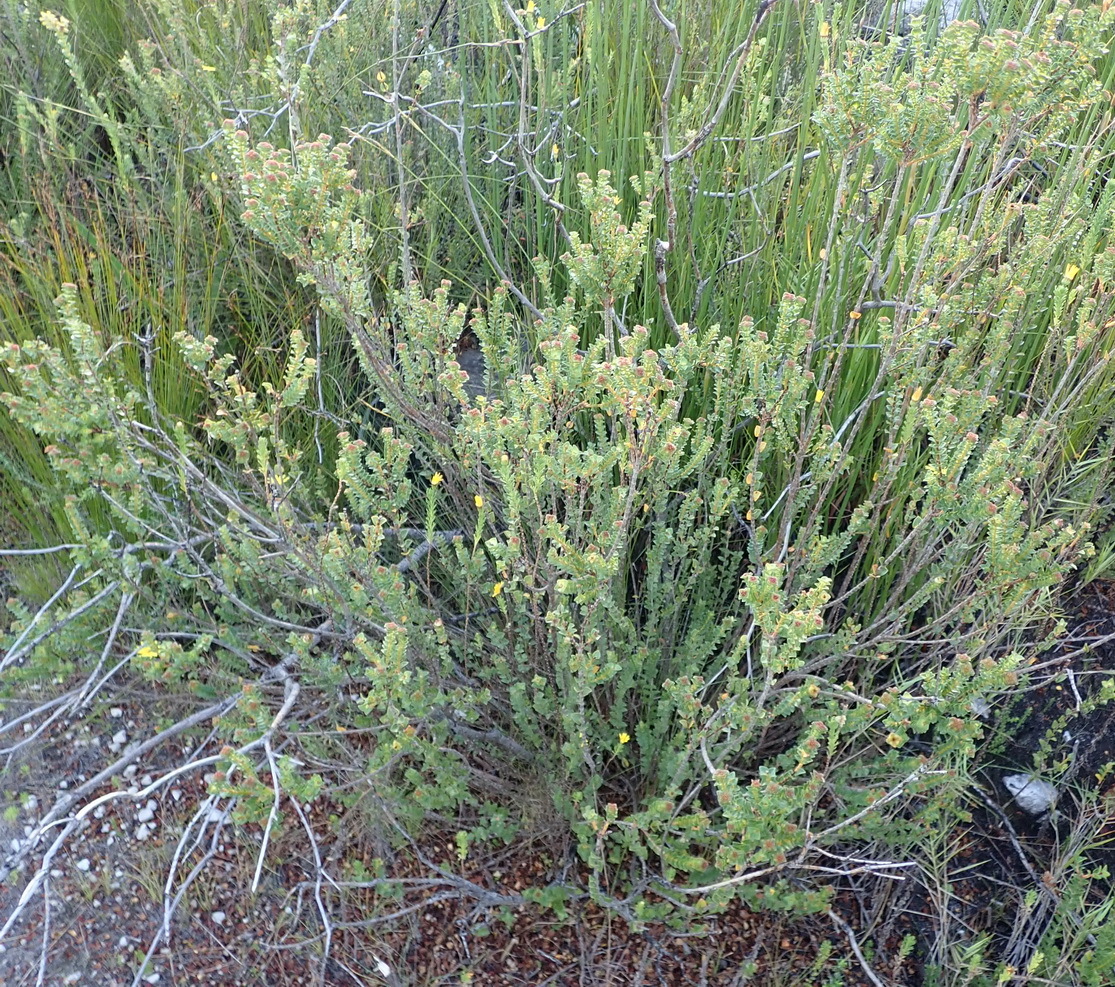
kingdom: Plantae
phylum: Tracheophyta
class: Magnoliopsida
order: Myrtales
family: Penaeaceae
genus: Penaea
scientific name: Penaea mucronata
